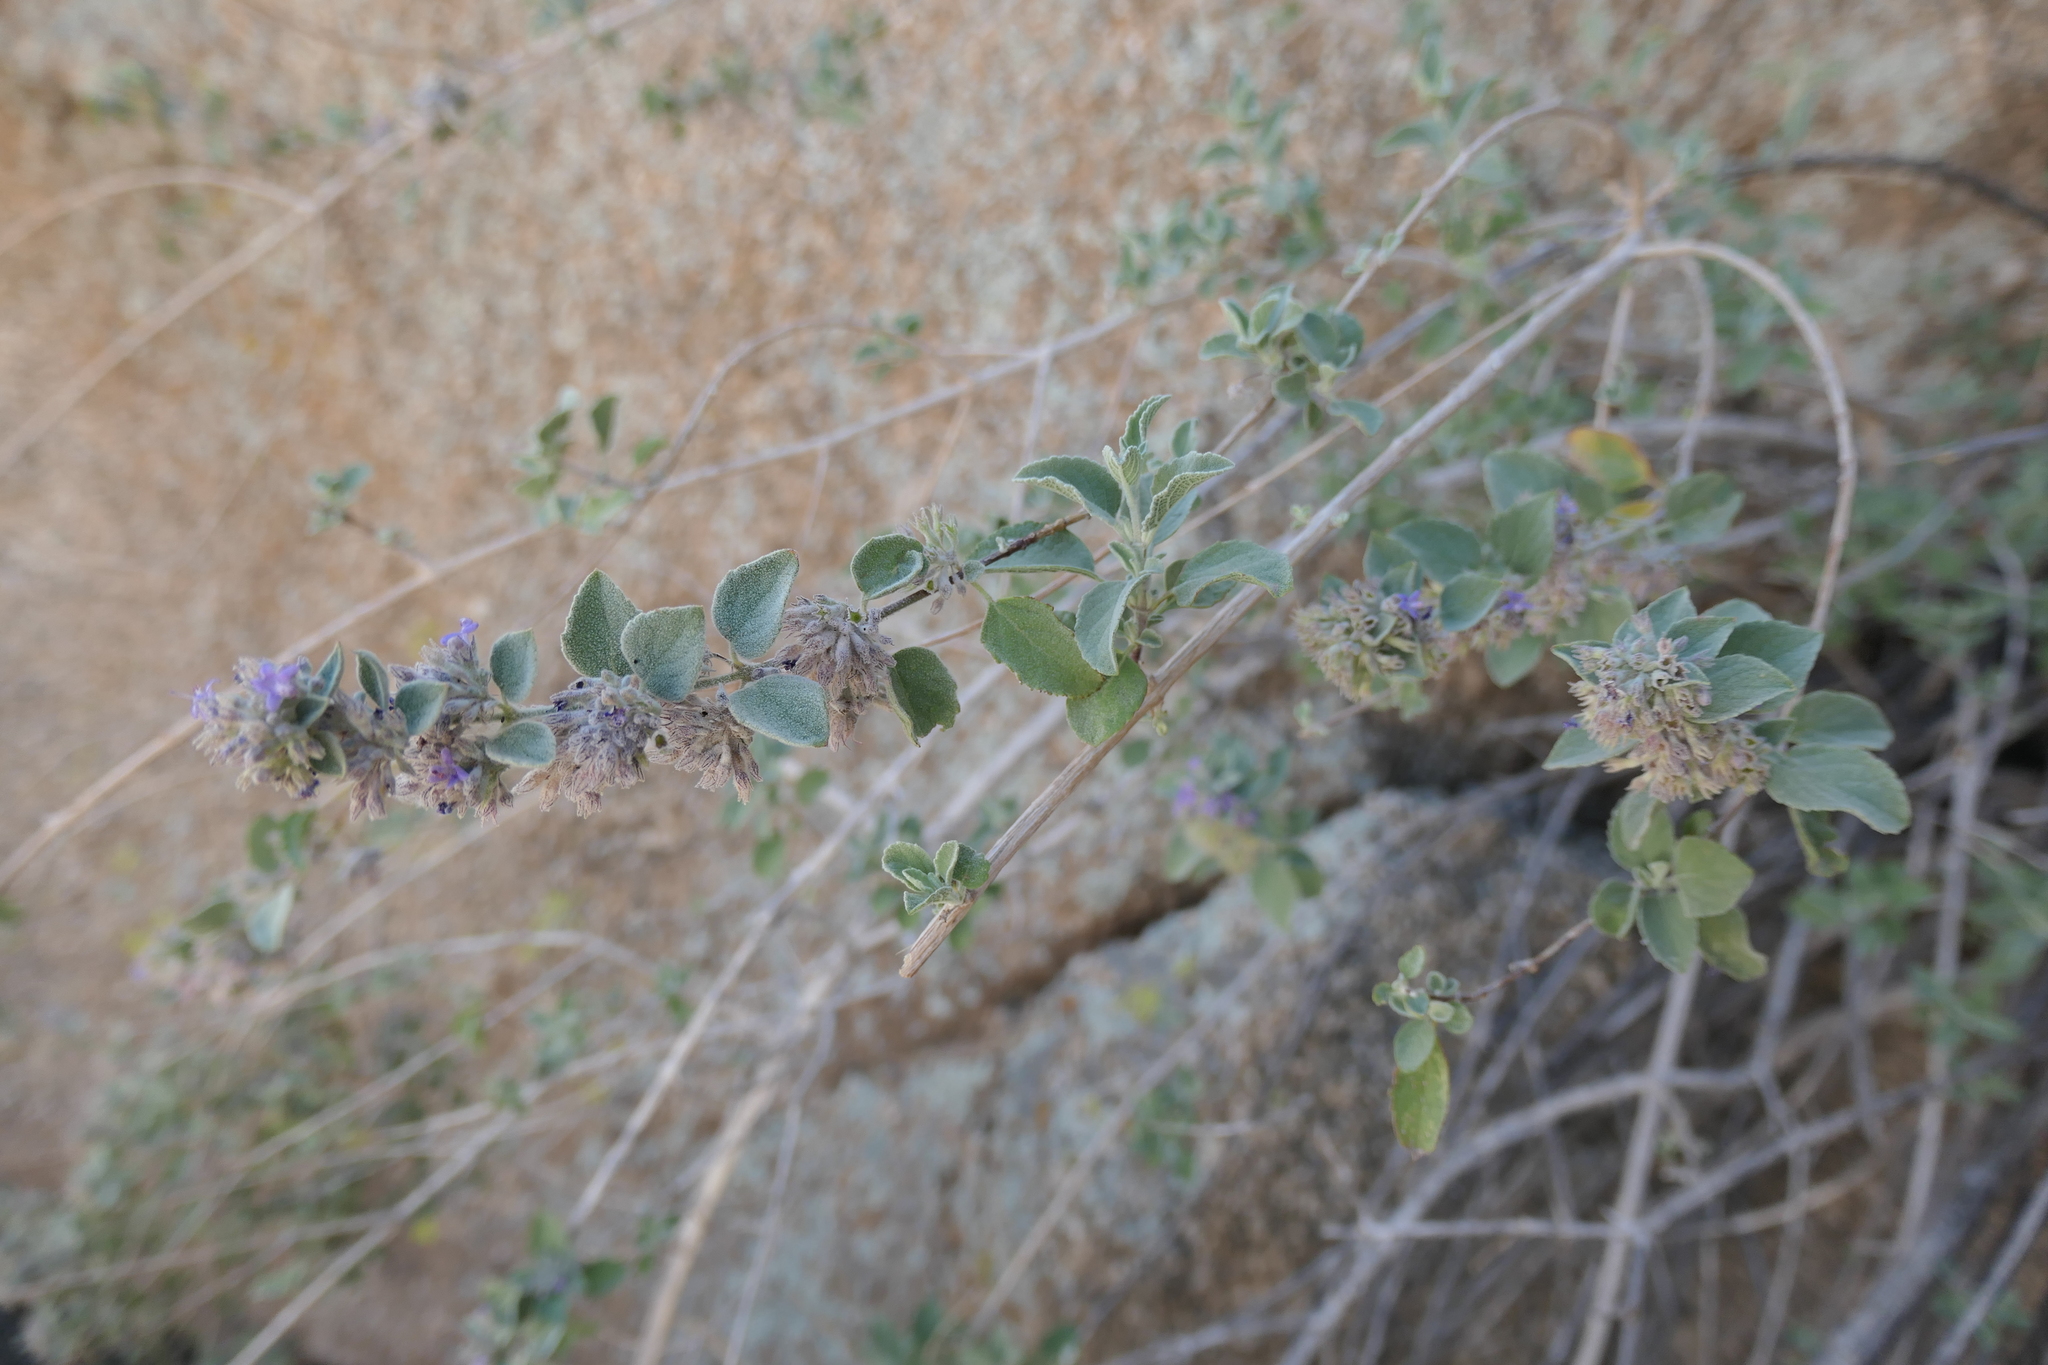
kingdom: Plantae
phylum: Tracheophyta
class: Magnoliopsida
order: Lamiales
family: Lamiaceae
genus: Condea
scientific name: Condea emoryi
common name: Chia
